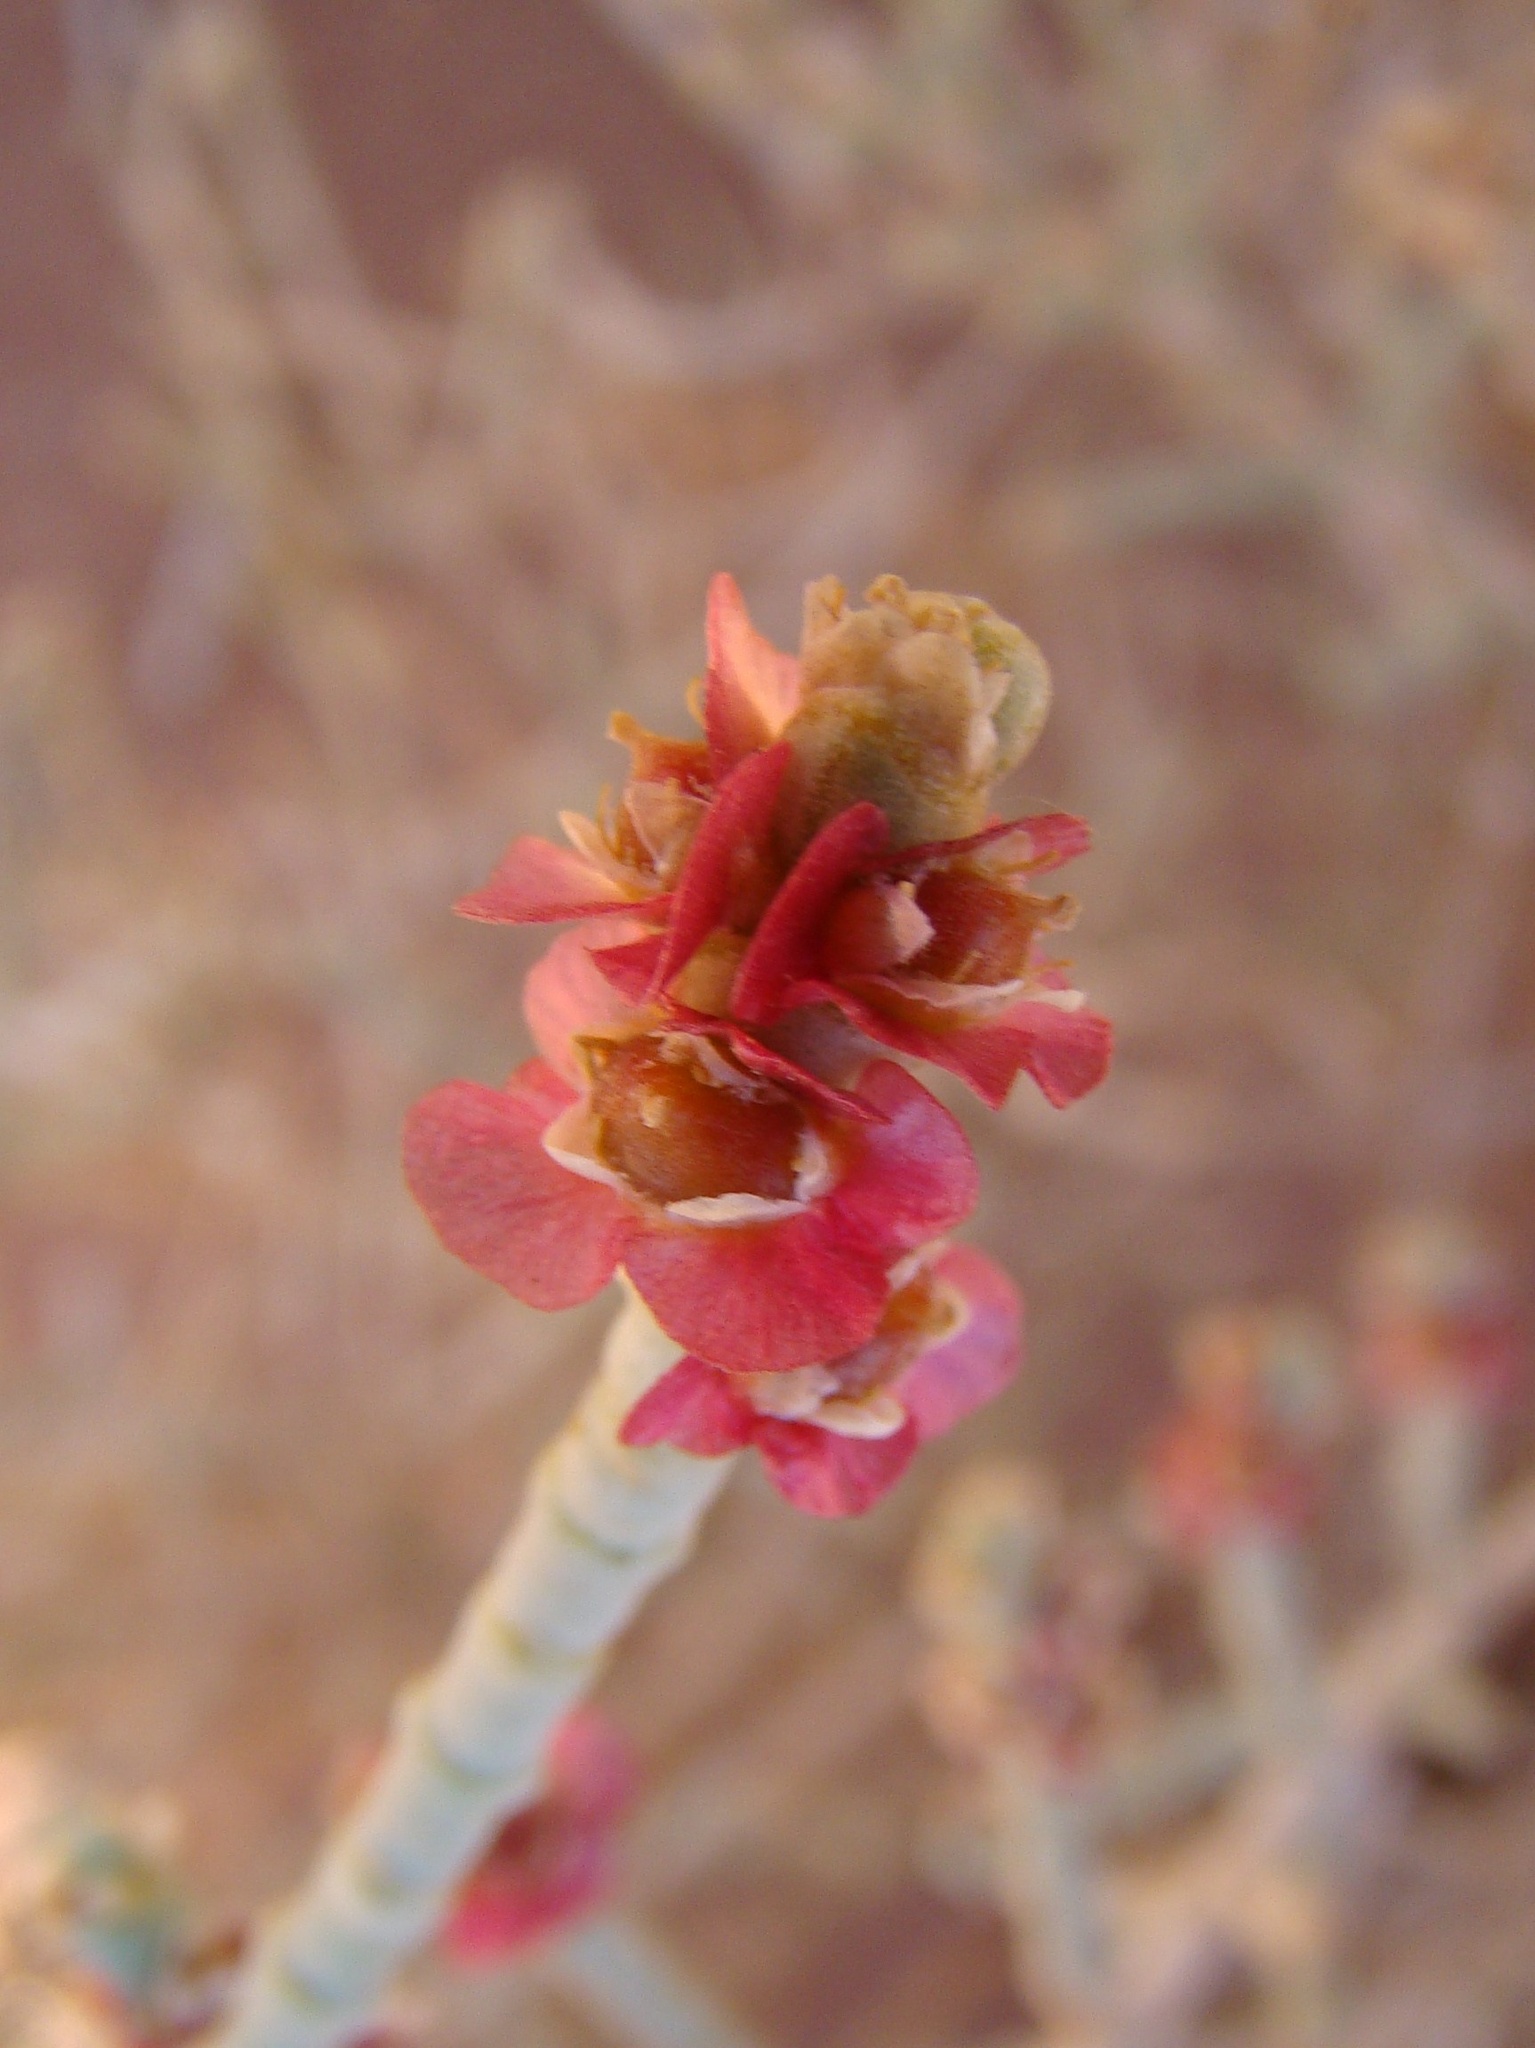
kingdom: Plantae
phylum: Tracheophyta
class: Magnoliopsida
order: Caryophyllales
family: Amaranthaceae
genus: Anabasis
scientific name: Anabasis articulata
